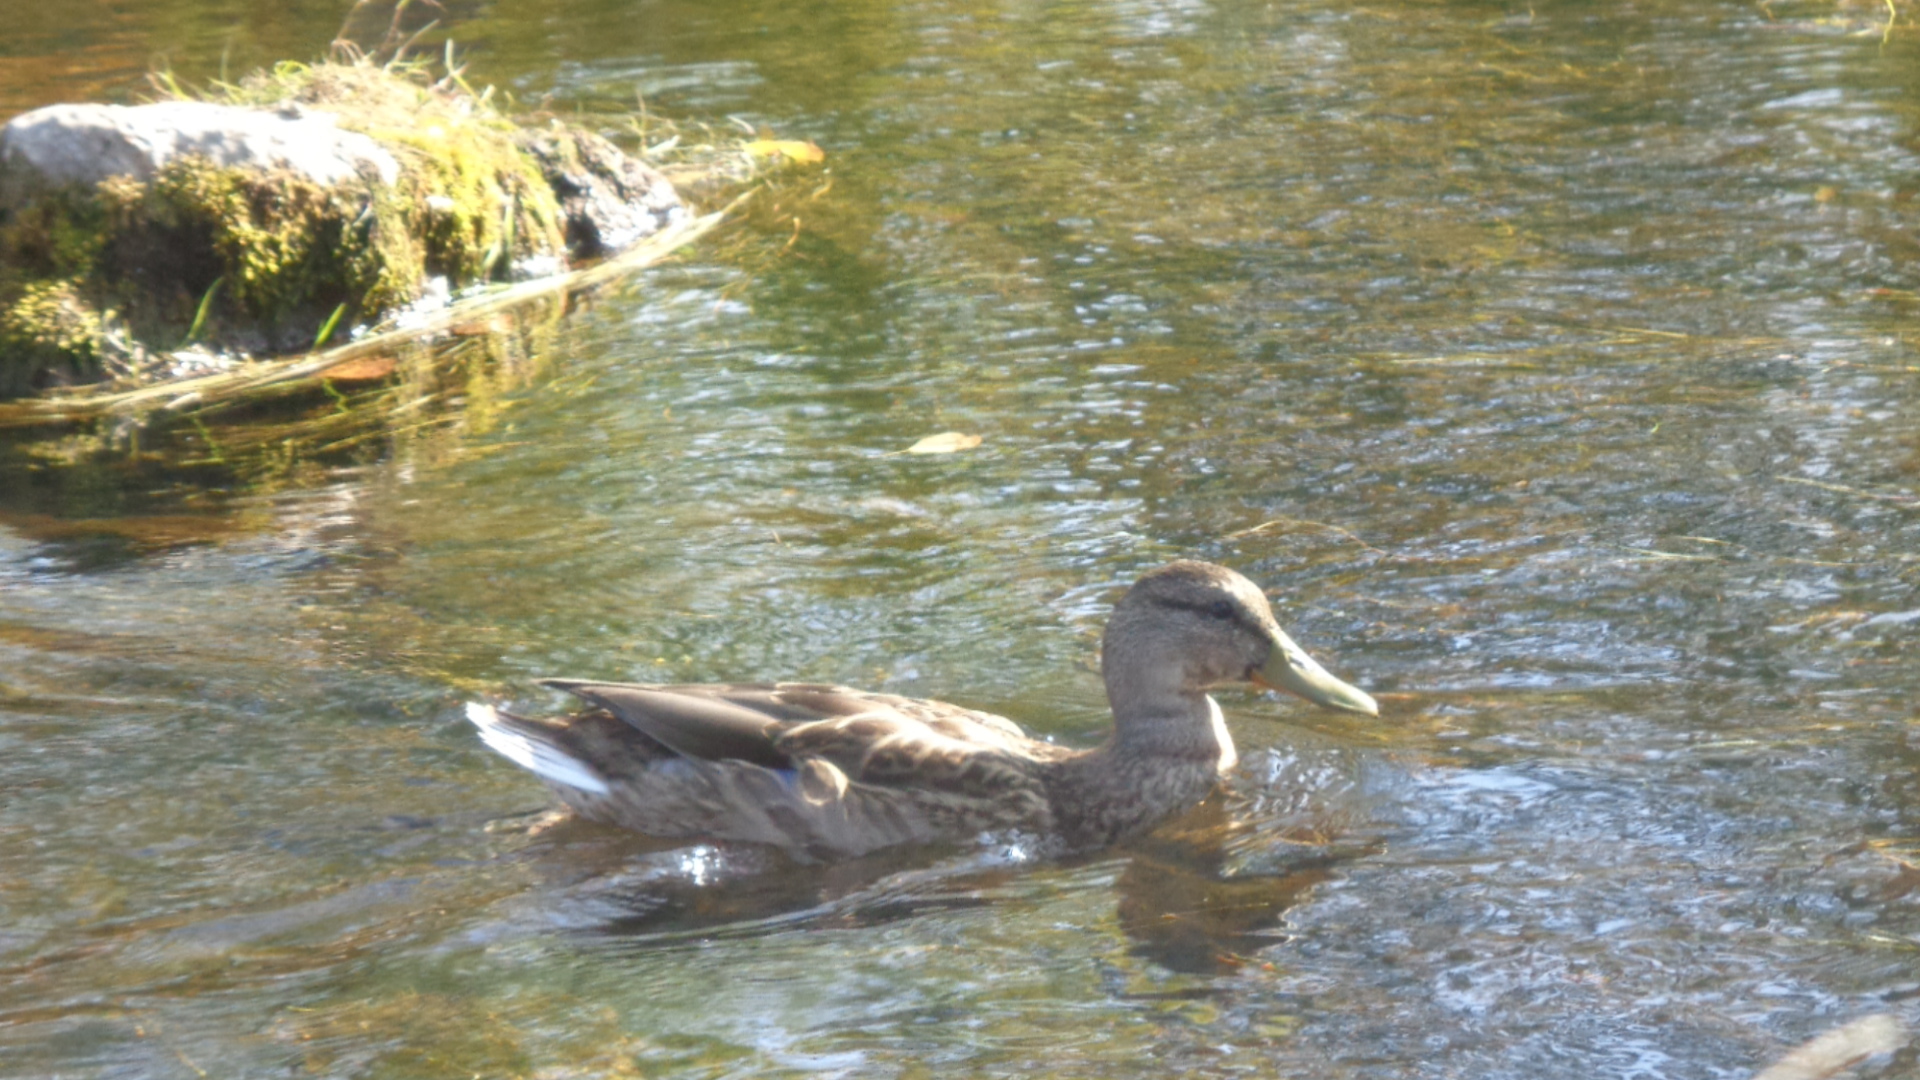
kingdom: Animalia
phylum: Chordata
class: Aves
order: Anseriformes
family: Anatidae
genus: Anas
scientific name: Anas platyrhynchos
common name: Mallard
